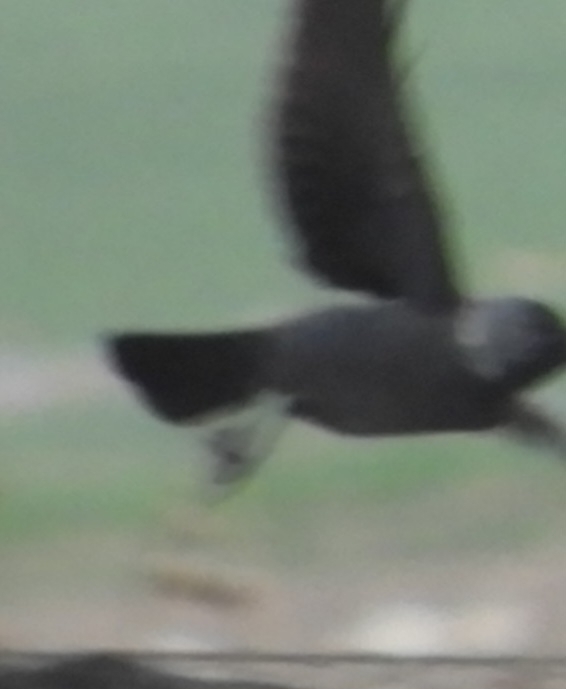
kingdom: Animalia
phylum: Chordata
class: Aves
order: Passeriformes
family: Corvidae
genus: Coloeus
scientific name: Coloeus monedula
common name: Western jackdaw
